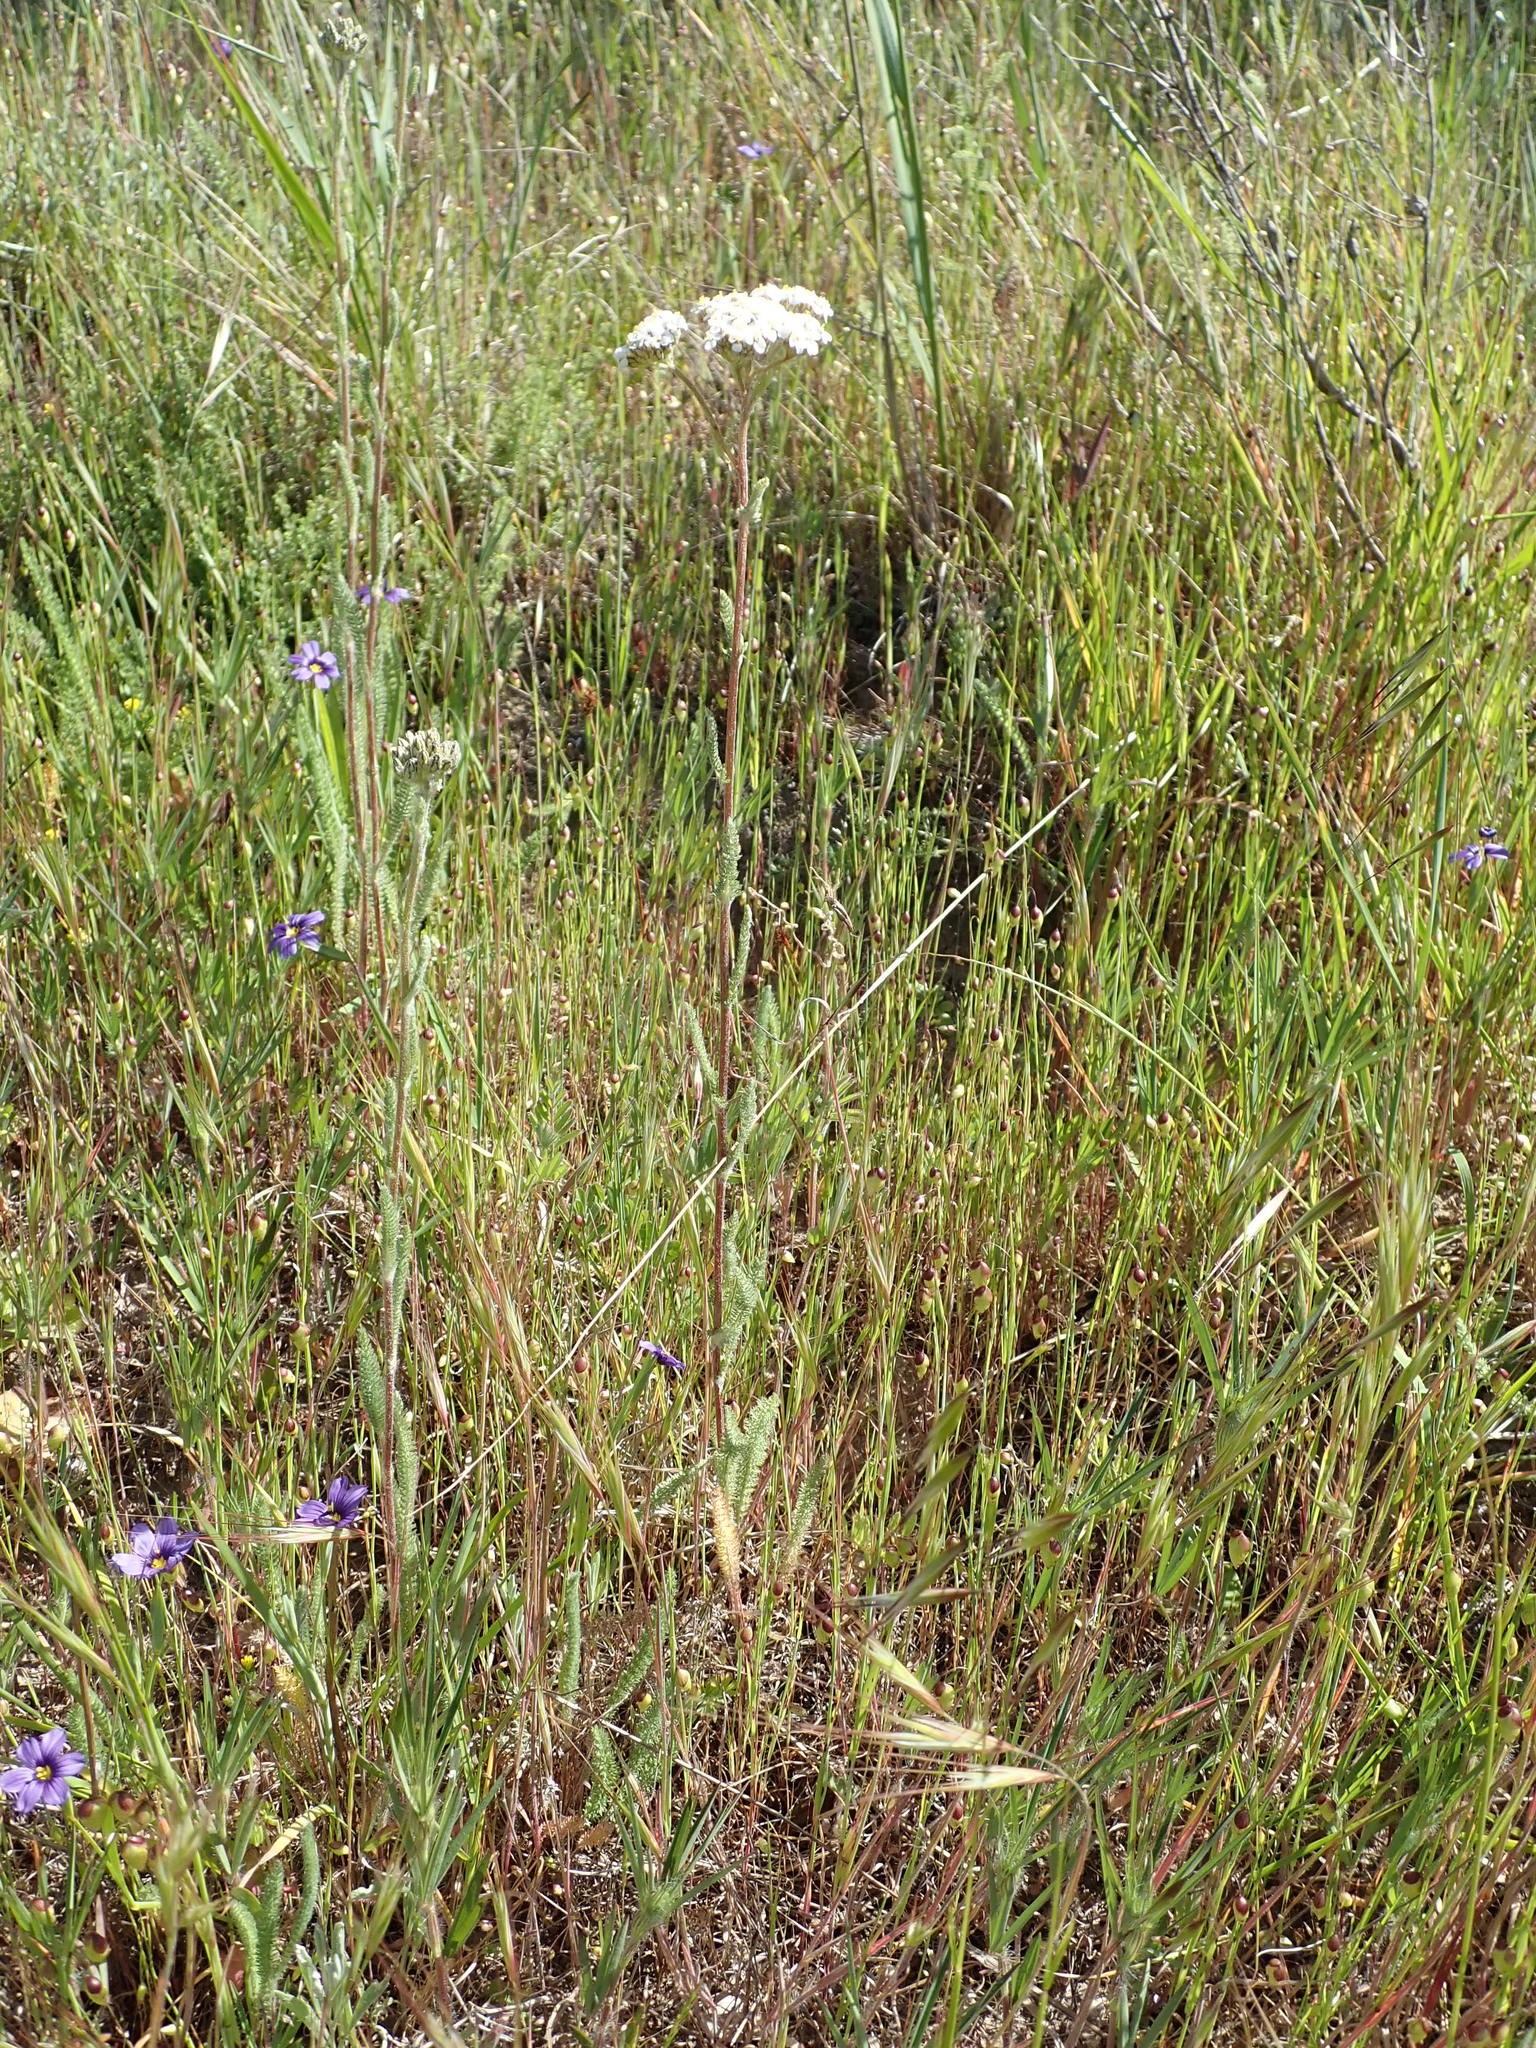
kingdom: Plantae
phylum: Tracheophyta
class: Magnoliopsida
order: Asterales
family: Asteraceae
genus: Achillea
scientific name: Achillea millefolium
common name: Yarrow
